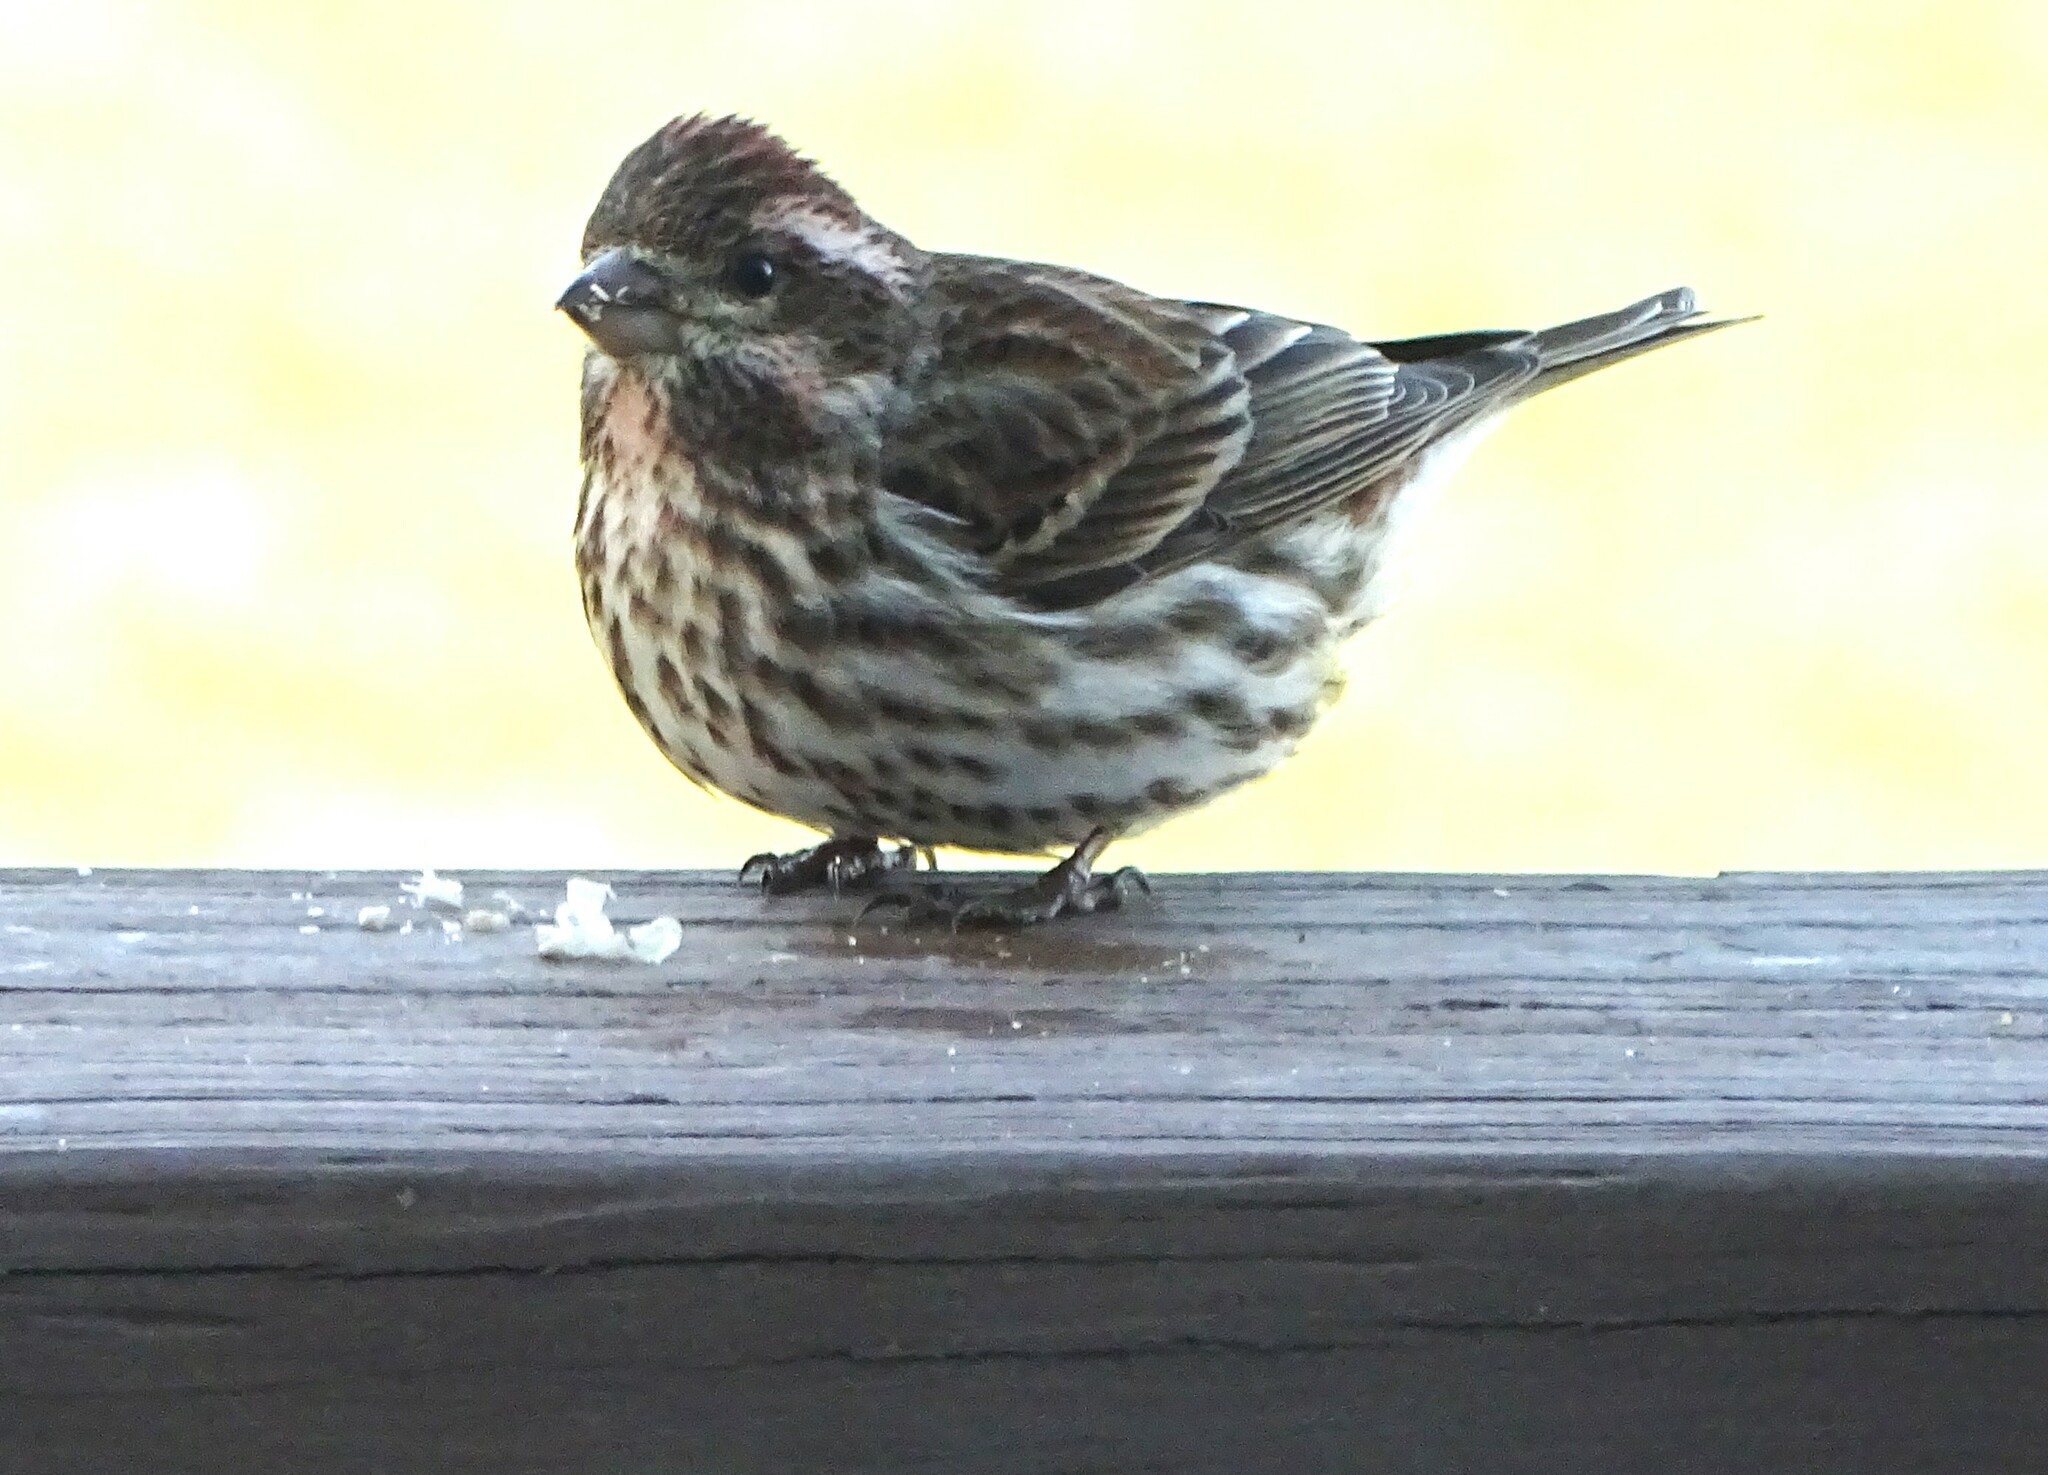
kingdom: Animalia
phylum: Chordata
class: Aves
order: Passeriformes
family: Fringillidae
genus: Haemorhous
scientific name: Haemorhous purpureus
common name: Purple finch
